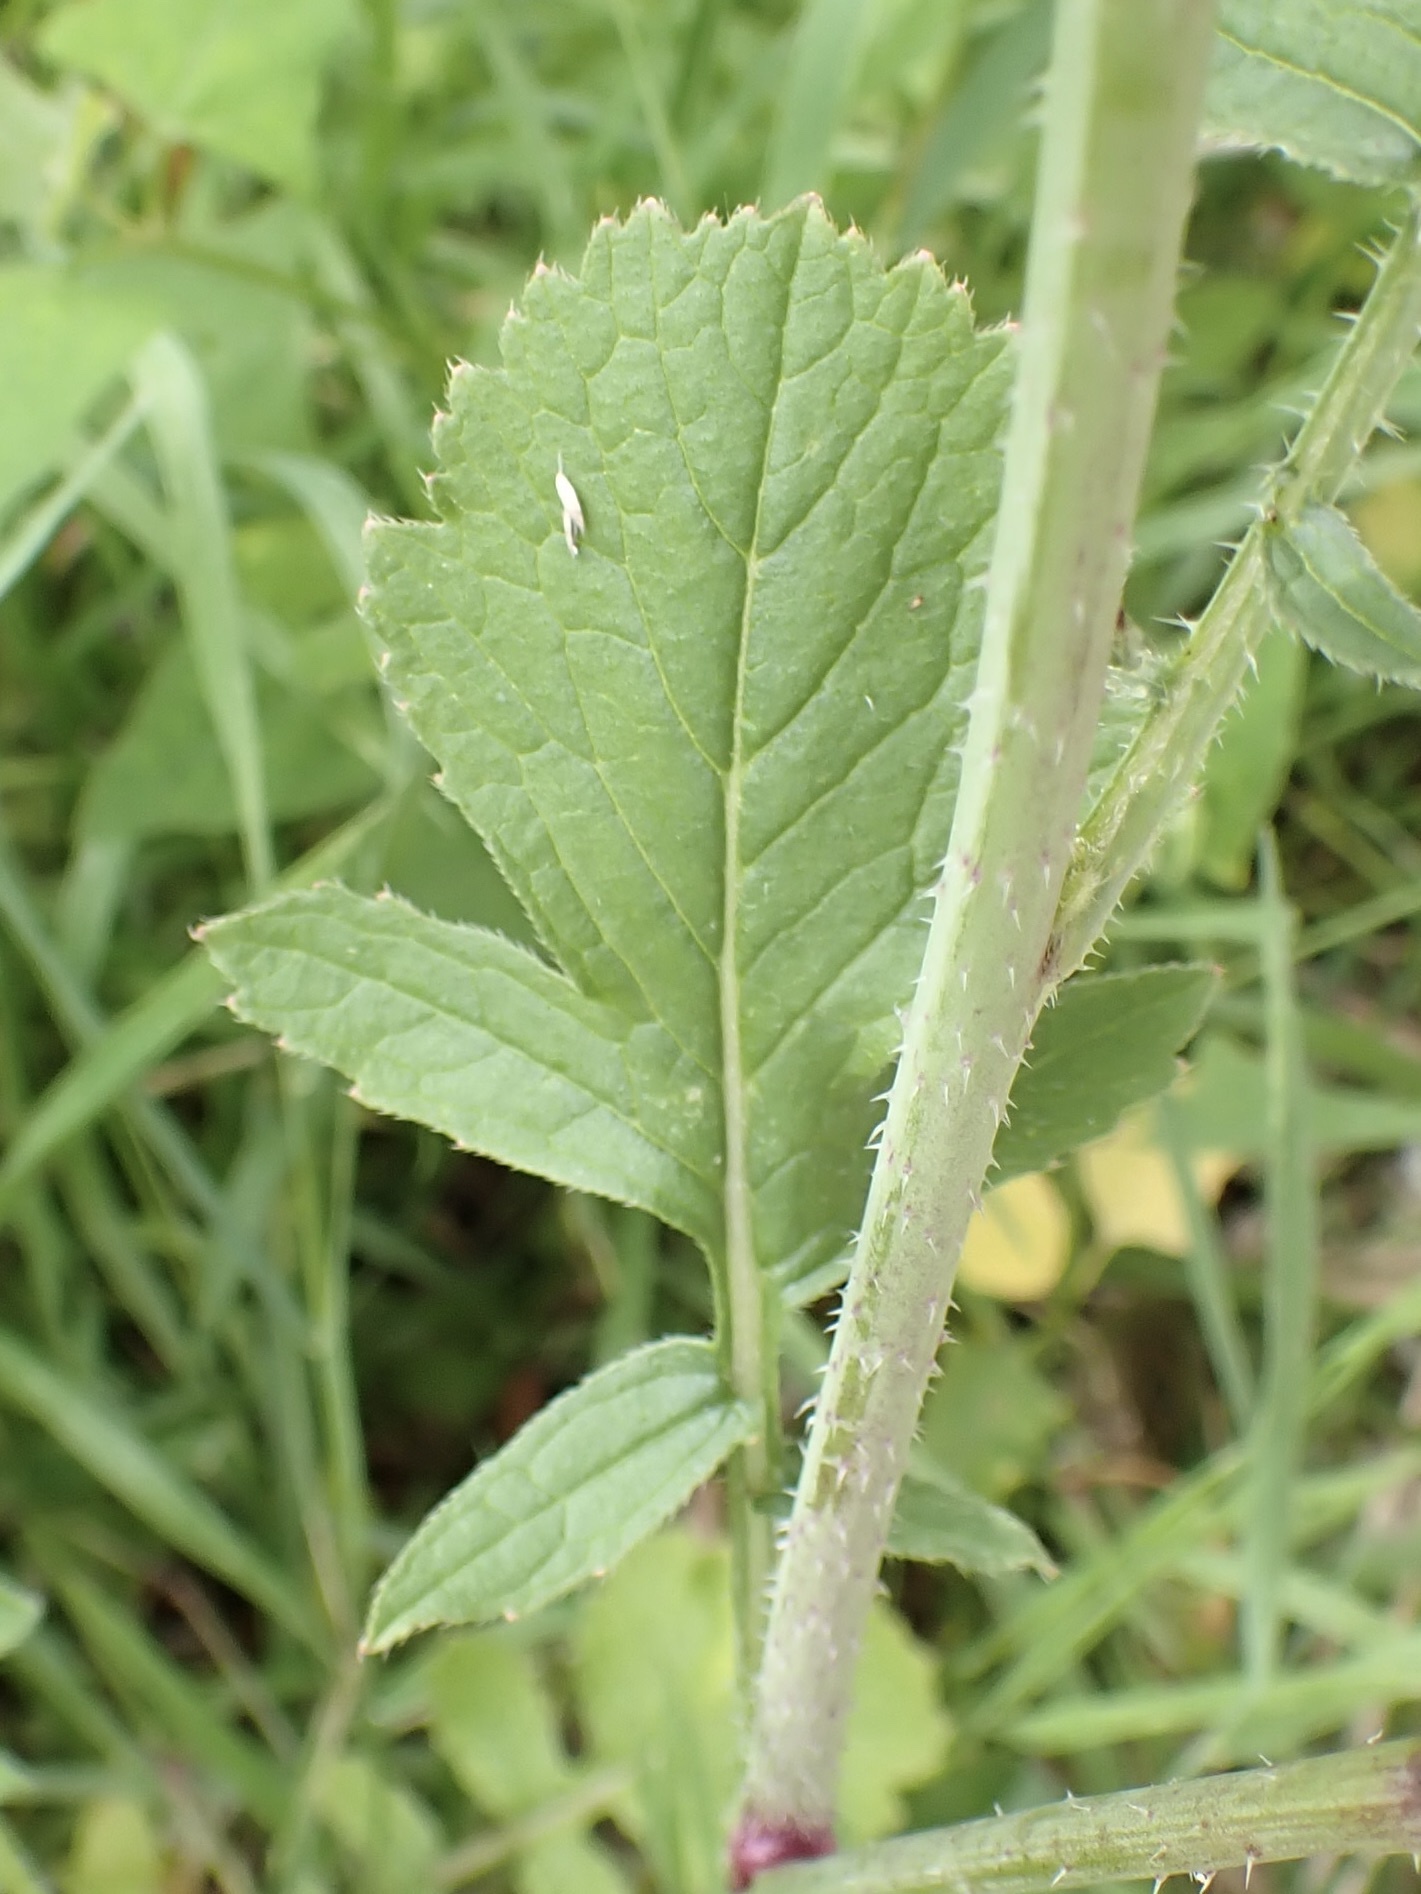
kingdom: Plantae
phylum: Tracheophyta
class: Magnoliopsida
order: Brassicales
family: Brassicaceae
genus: Raphanus
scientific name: Raphanus raphanistrum
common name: Wild radish
